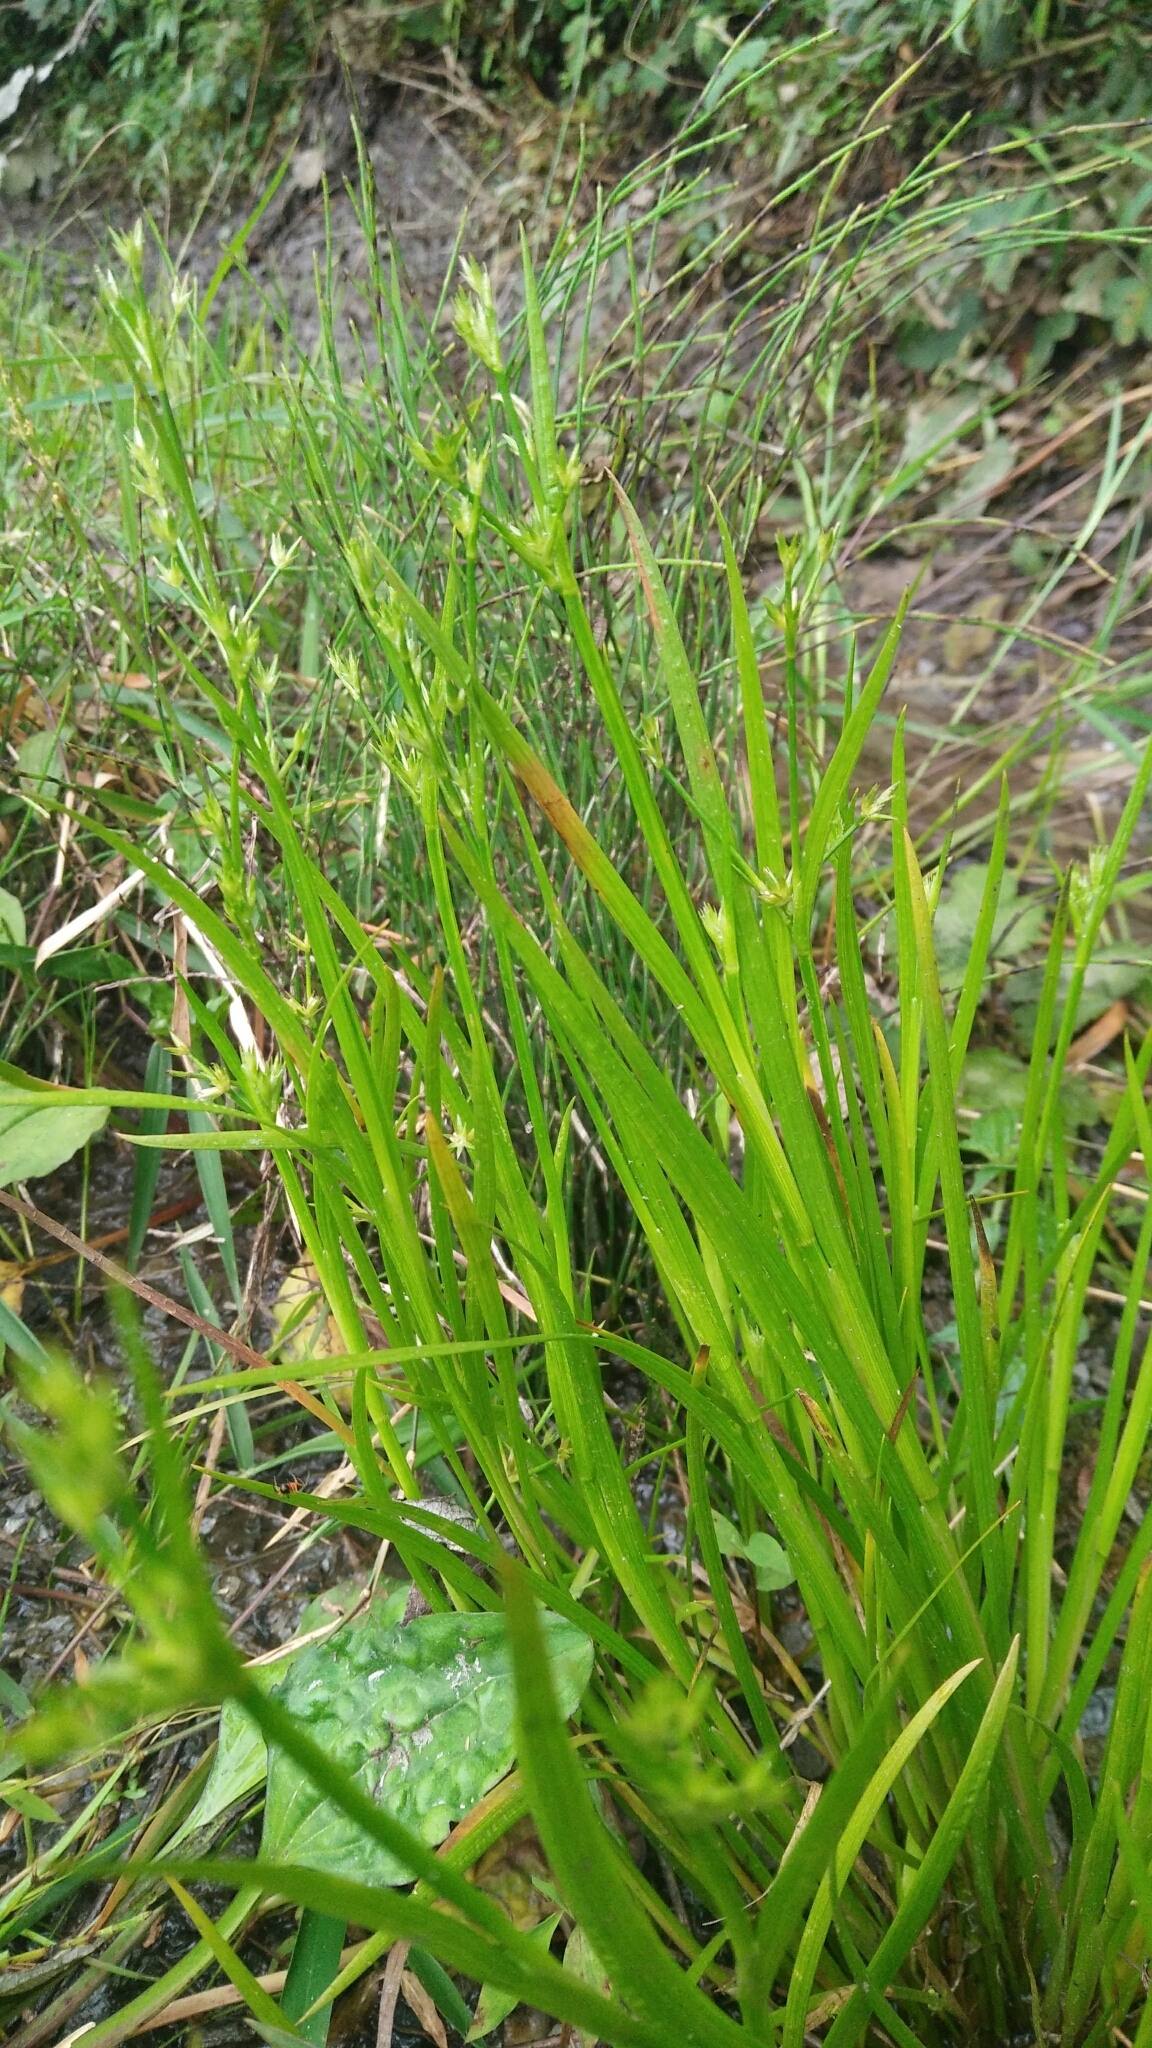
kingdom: Plantae
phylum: Tracheophyta
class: Liliopsida
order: Poales
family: Juncaceae
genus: Juncus
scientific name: Juncus prismatocarpus
